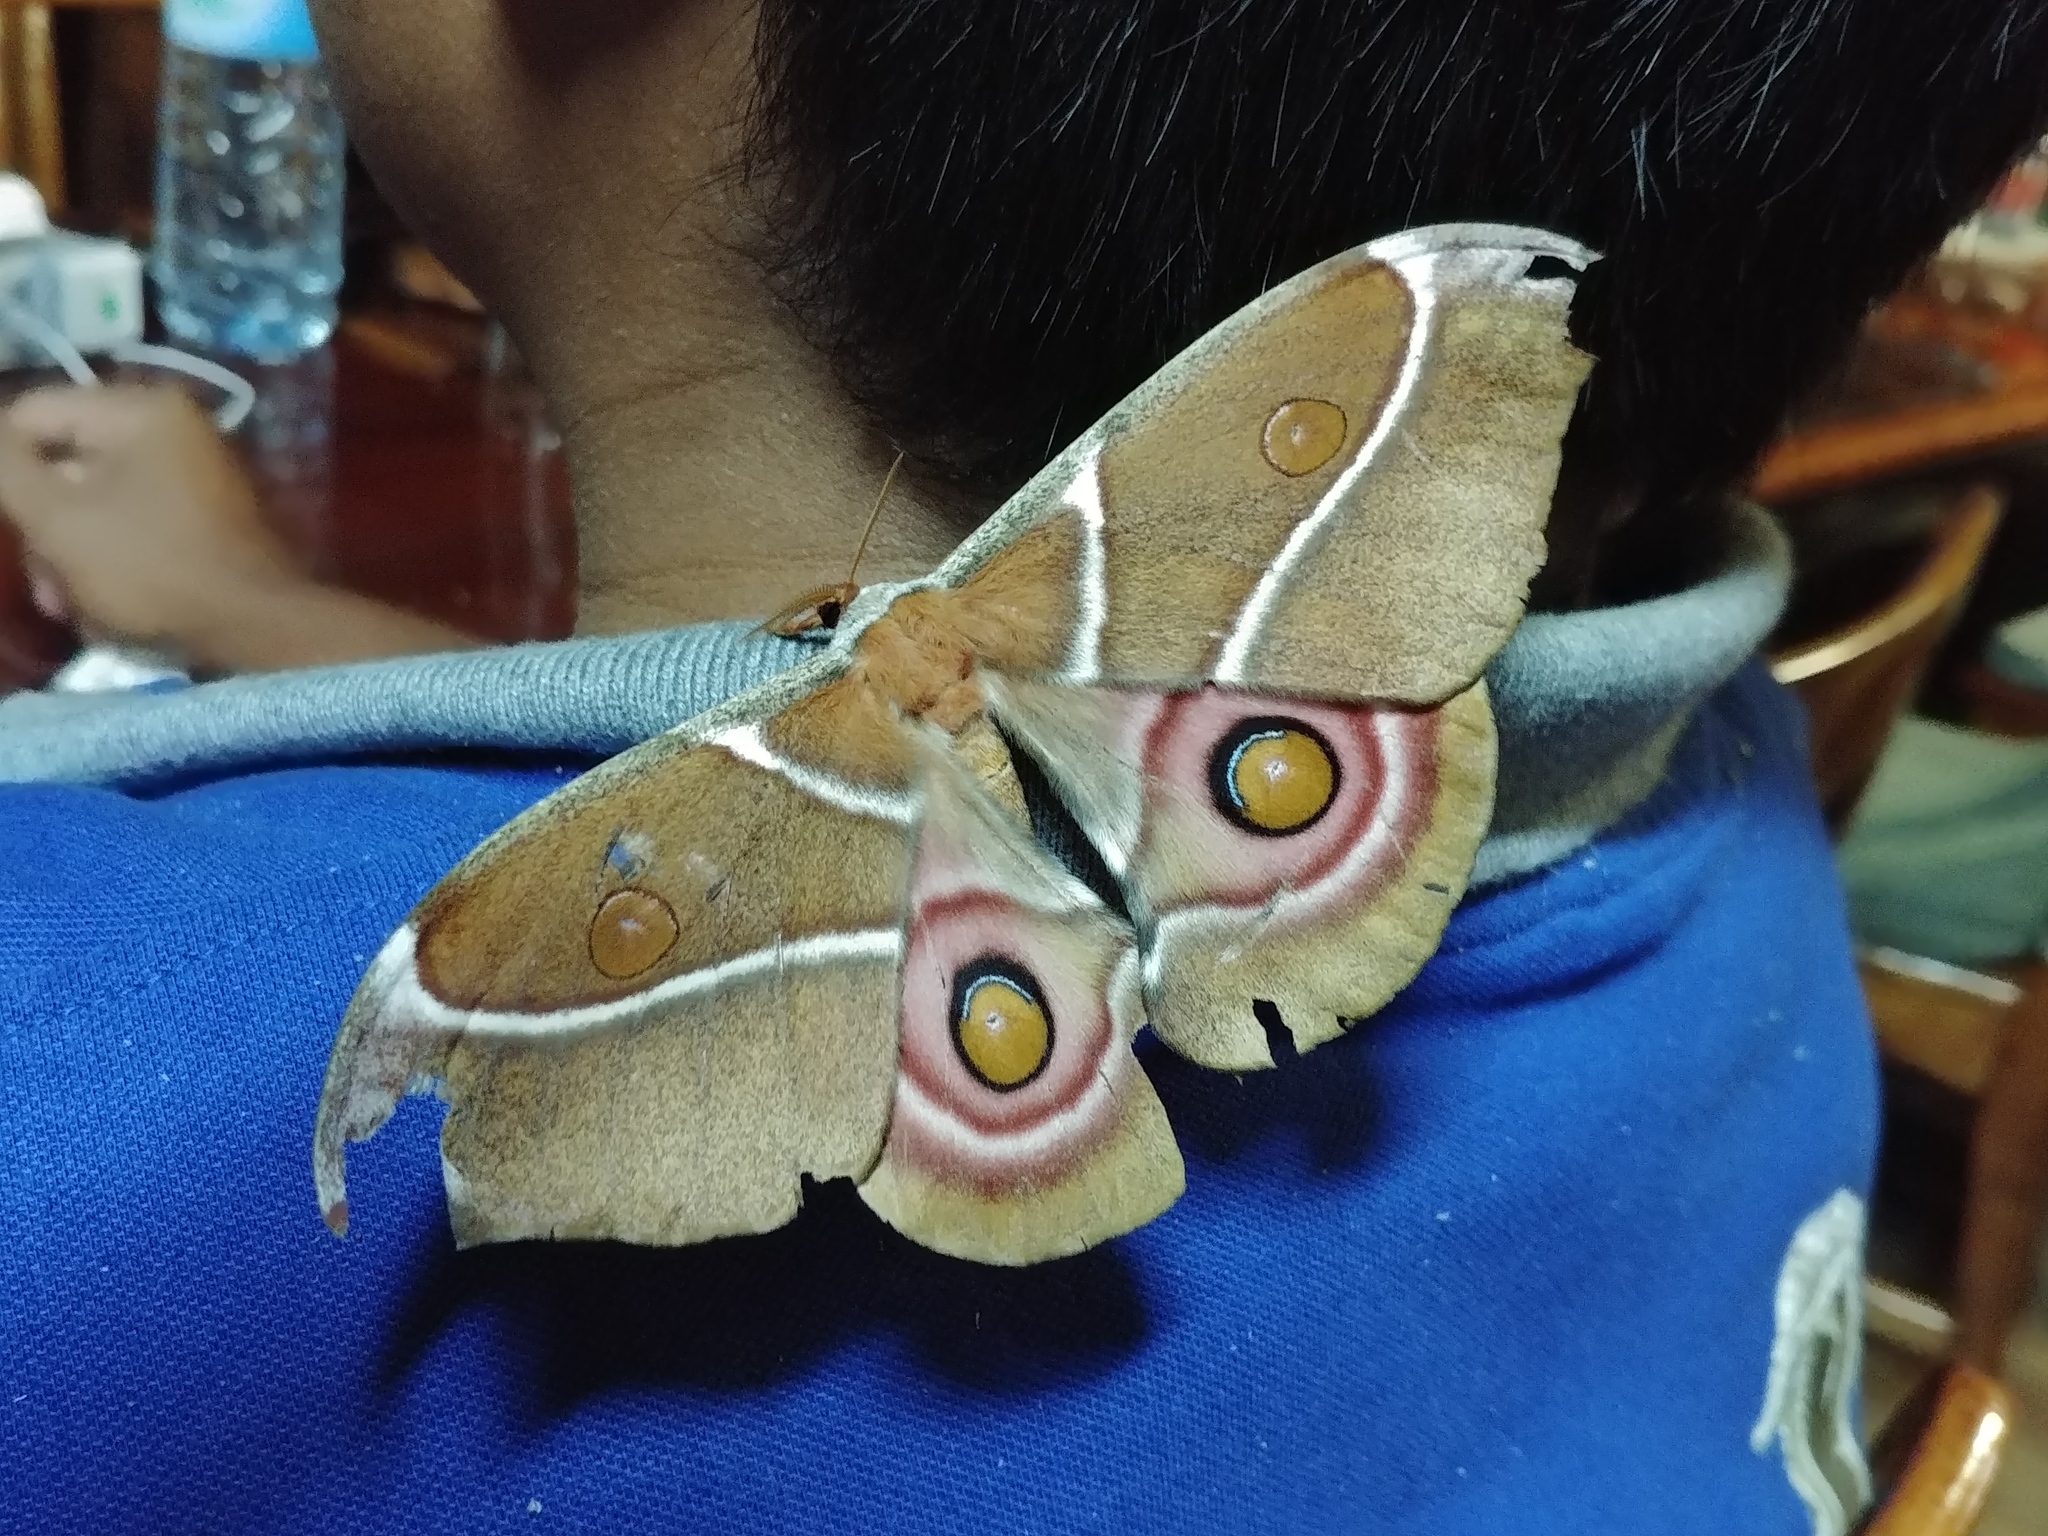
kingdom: Animalia
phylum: Arthropoda
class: Insecta
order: Lepidoptera
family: Saturniidae
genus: Antherina
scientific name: Antherina suraka
